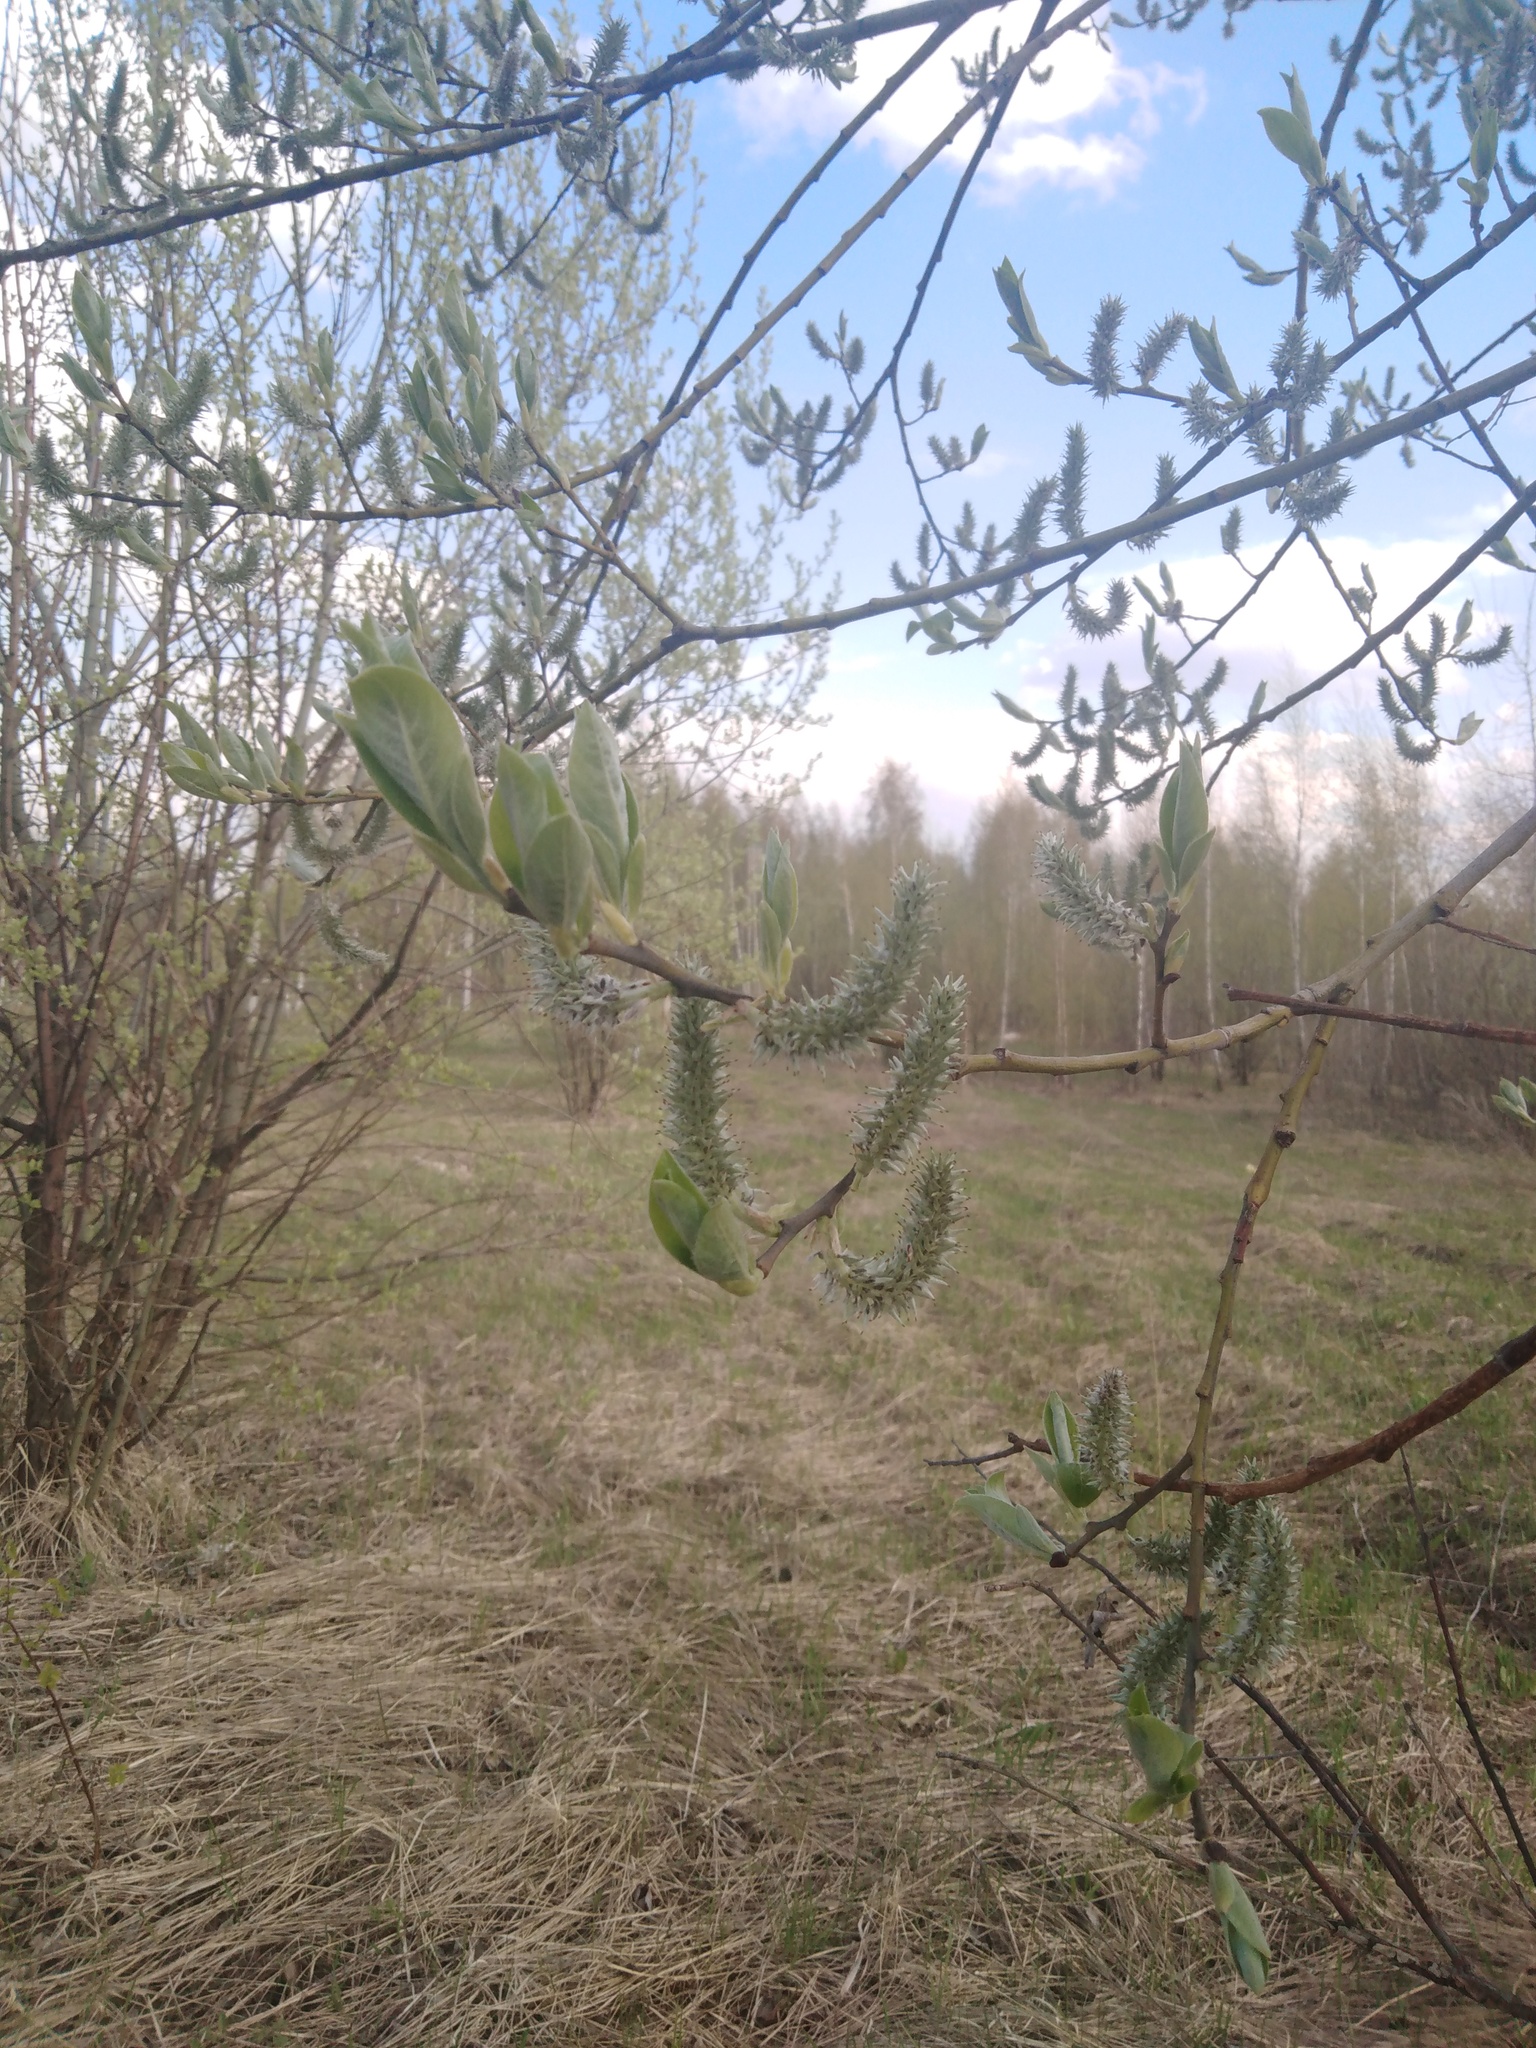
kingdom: Plantae
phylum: Tracheophyta
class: Magnoliopsida
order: Malpighiales
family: Salicaceae
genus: Salix
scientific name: Salix caprea
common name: Goat willow
